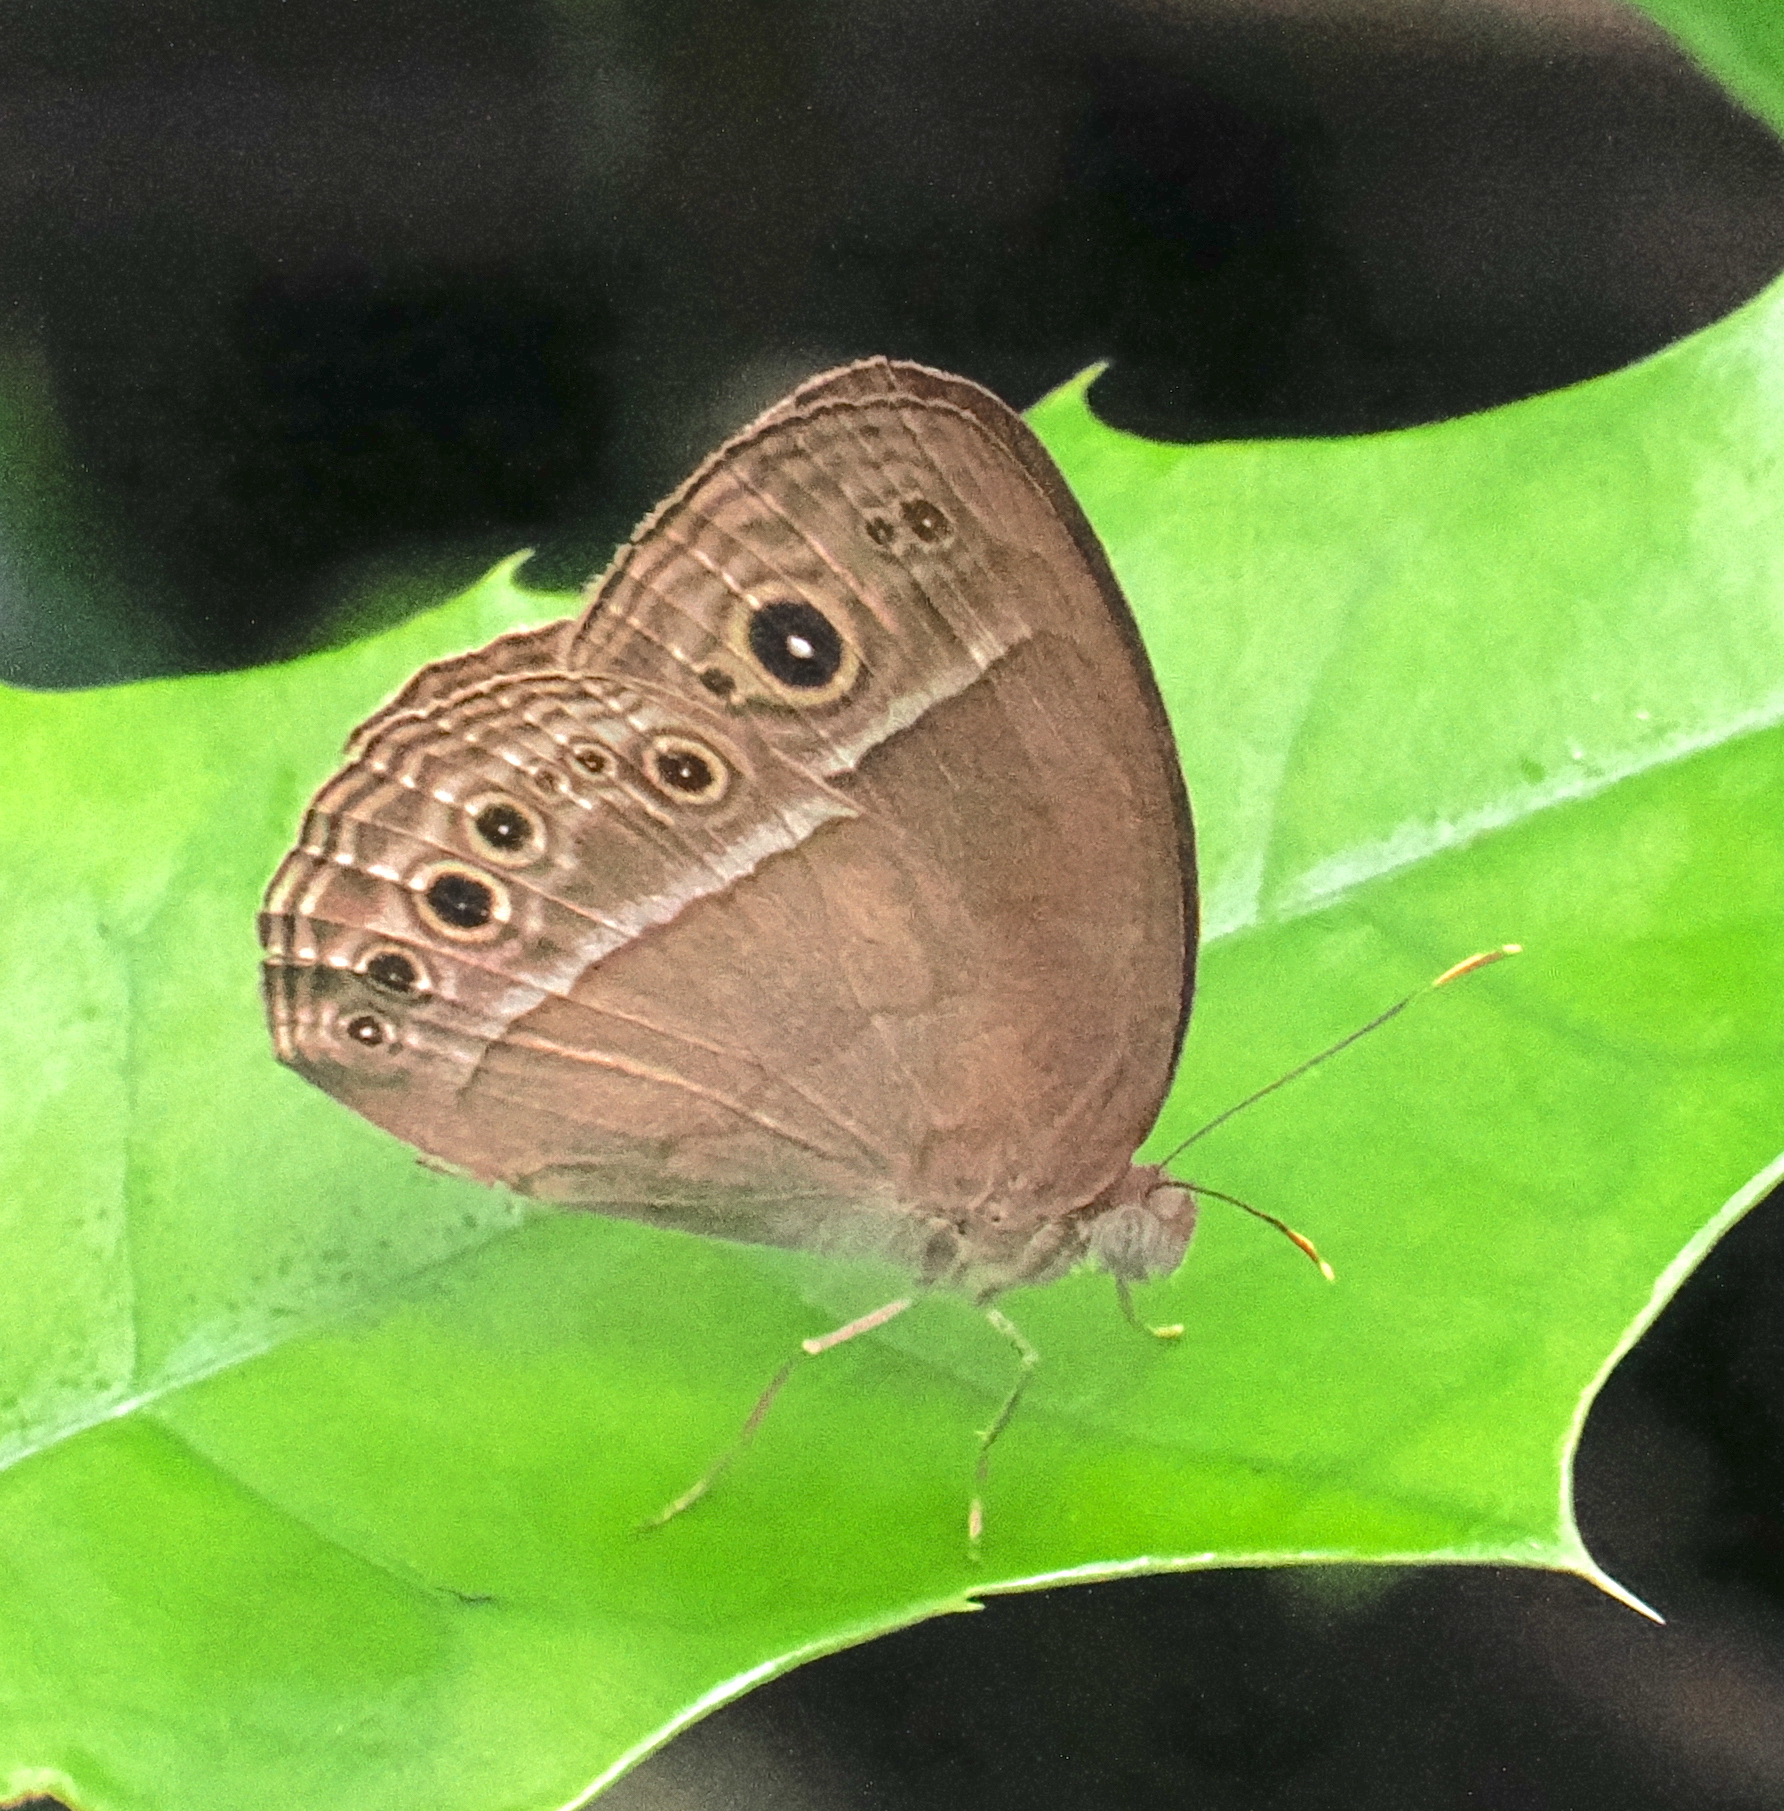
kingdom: Animalia
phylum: Arthropoda
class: Insecta
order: Lepidoptera
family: Nymphalidae
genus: Mycalesis
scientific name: Mycalesis visala
